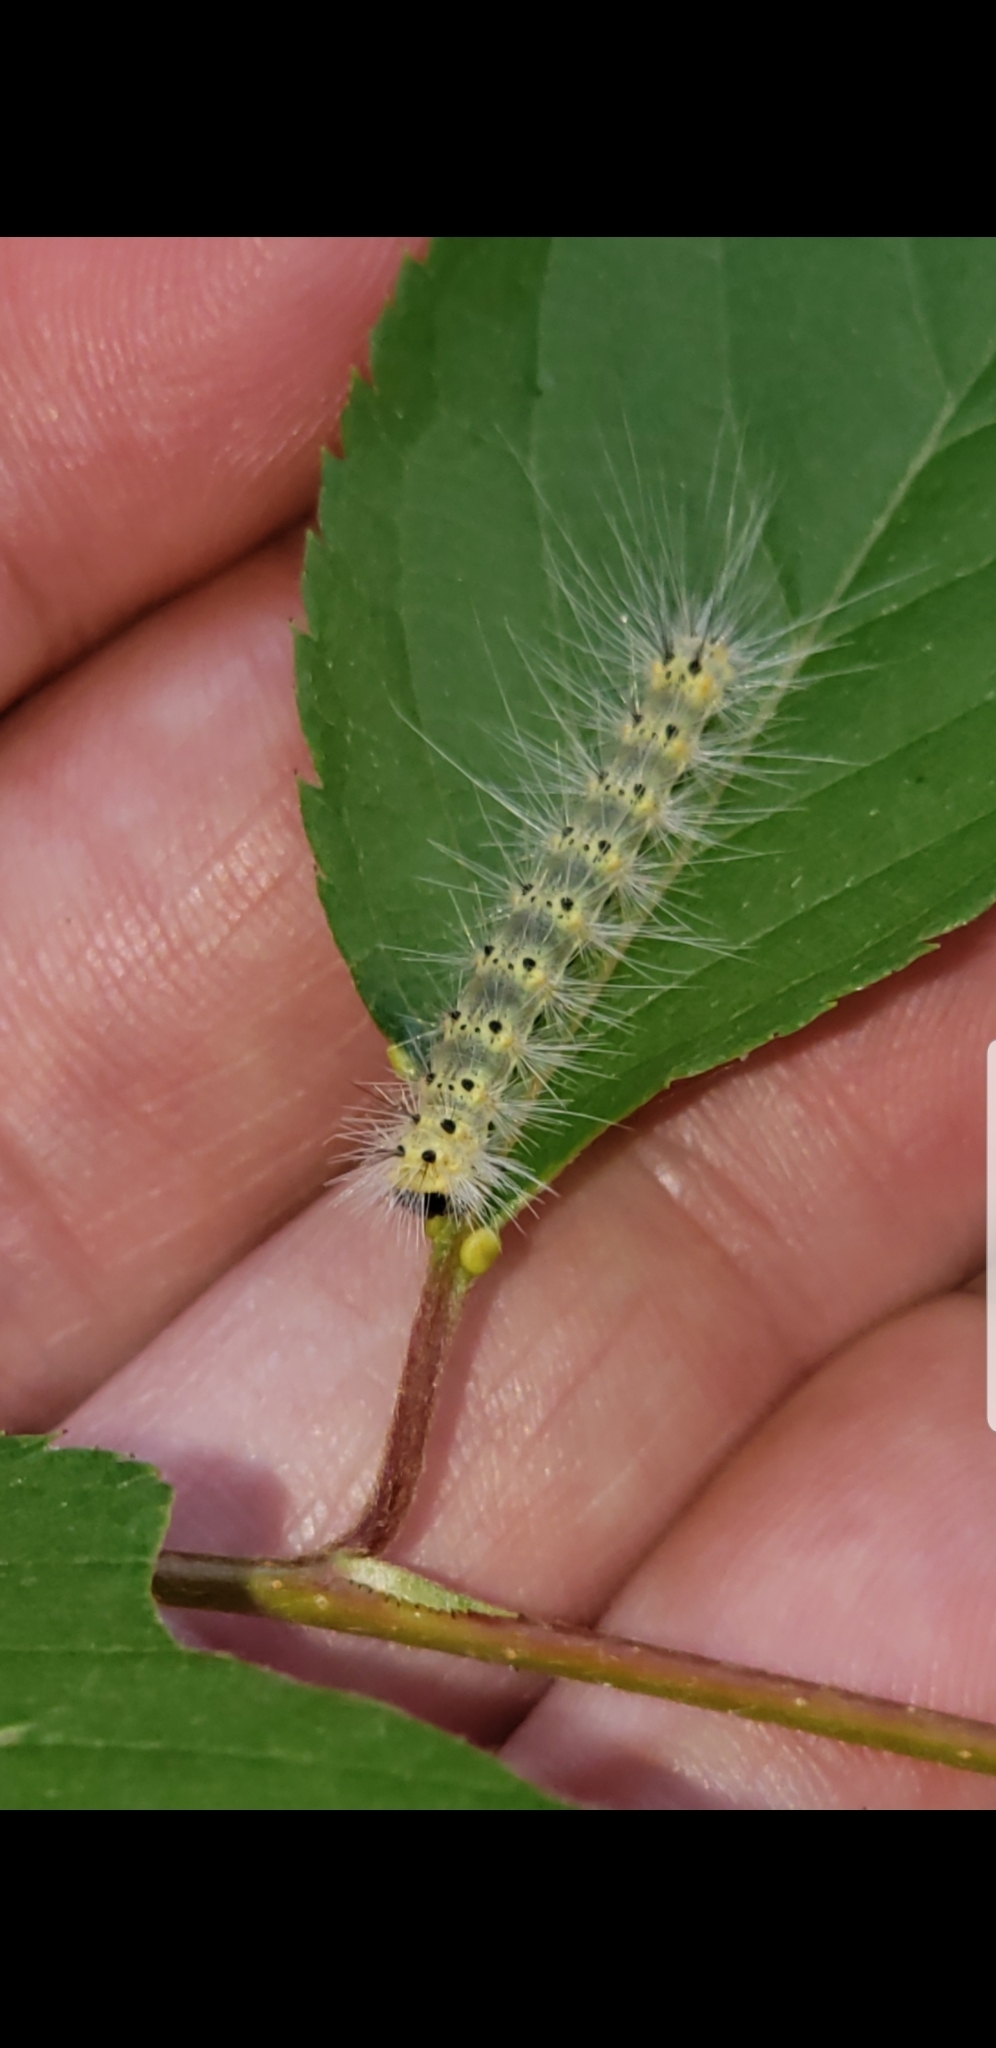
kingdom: Animalia
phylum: Arthropoda
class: Insecta
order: Lepidoptera
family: Erebidae
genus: Hyphantria
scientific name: Hyphantria cunea
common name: American white moth
